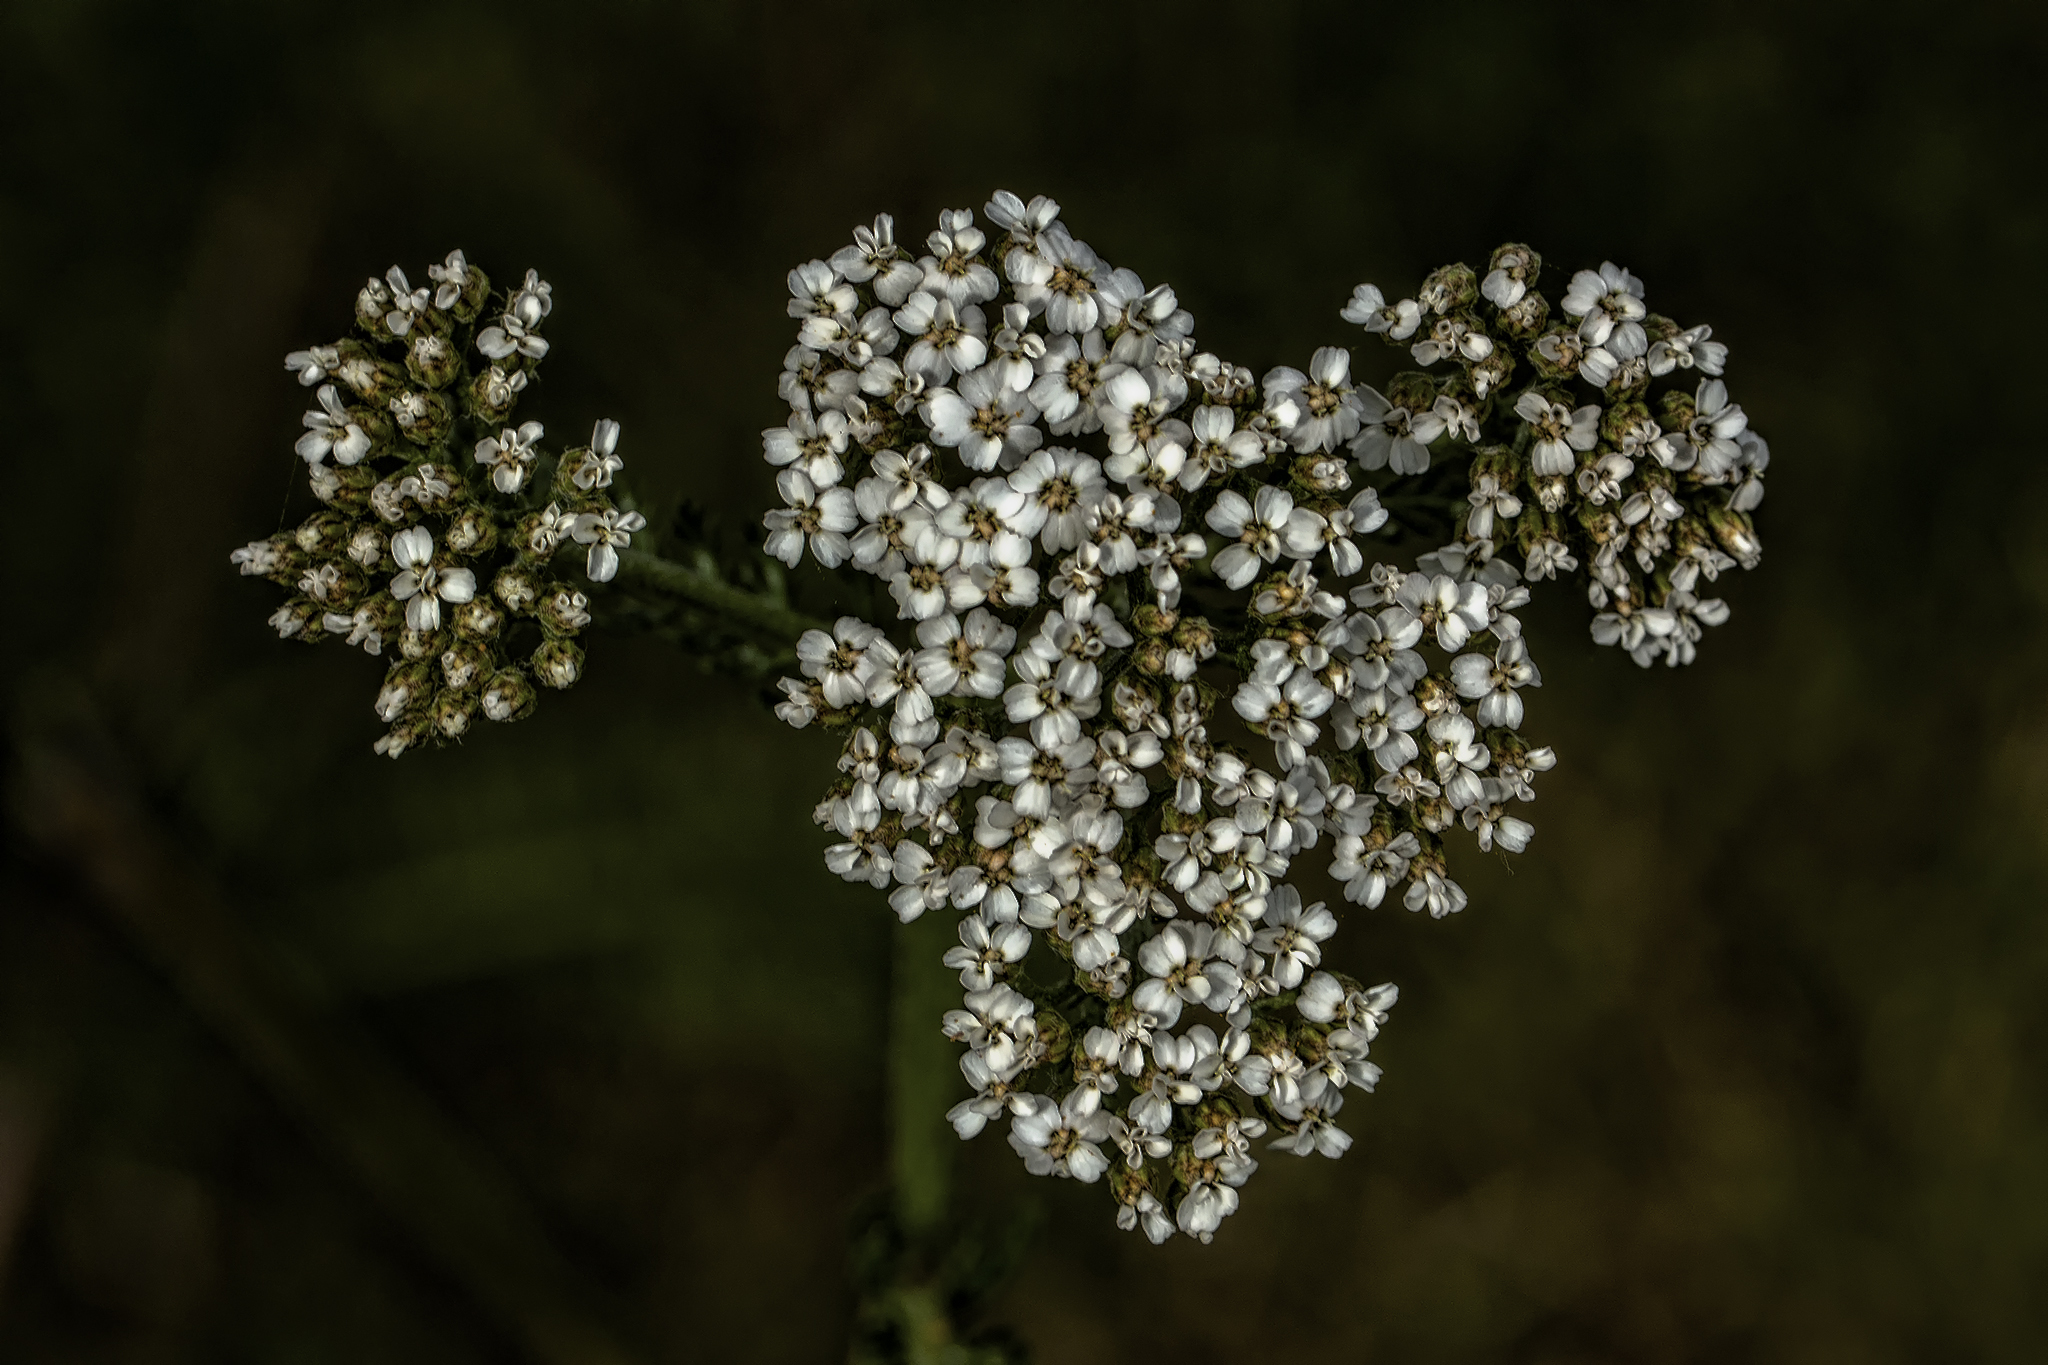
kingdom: Plantae
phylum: Tracheophyta
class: Magnoliopsida
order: Asterales
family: Asteraceae
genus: Achillea
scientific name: Achillea millefolium
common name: Yarrow
